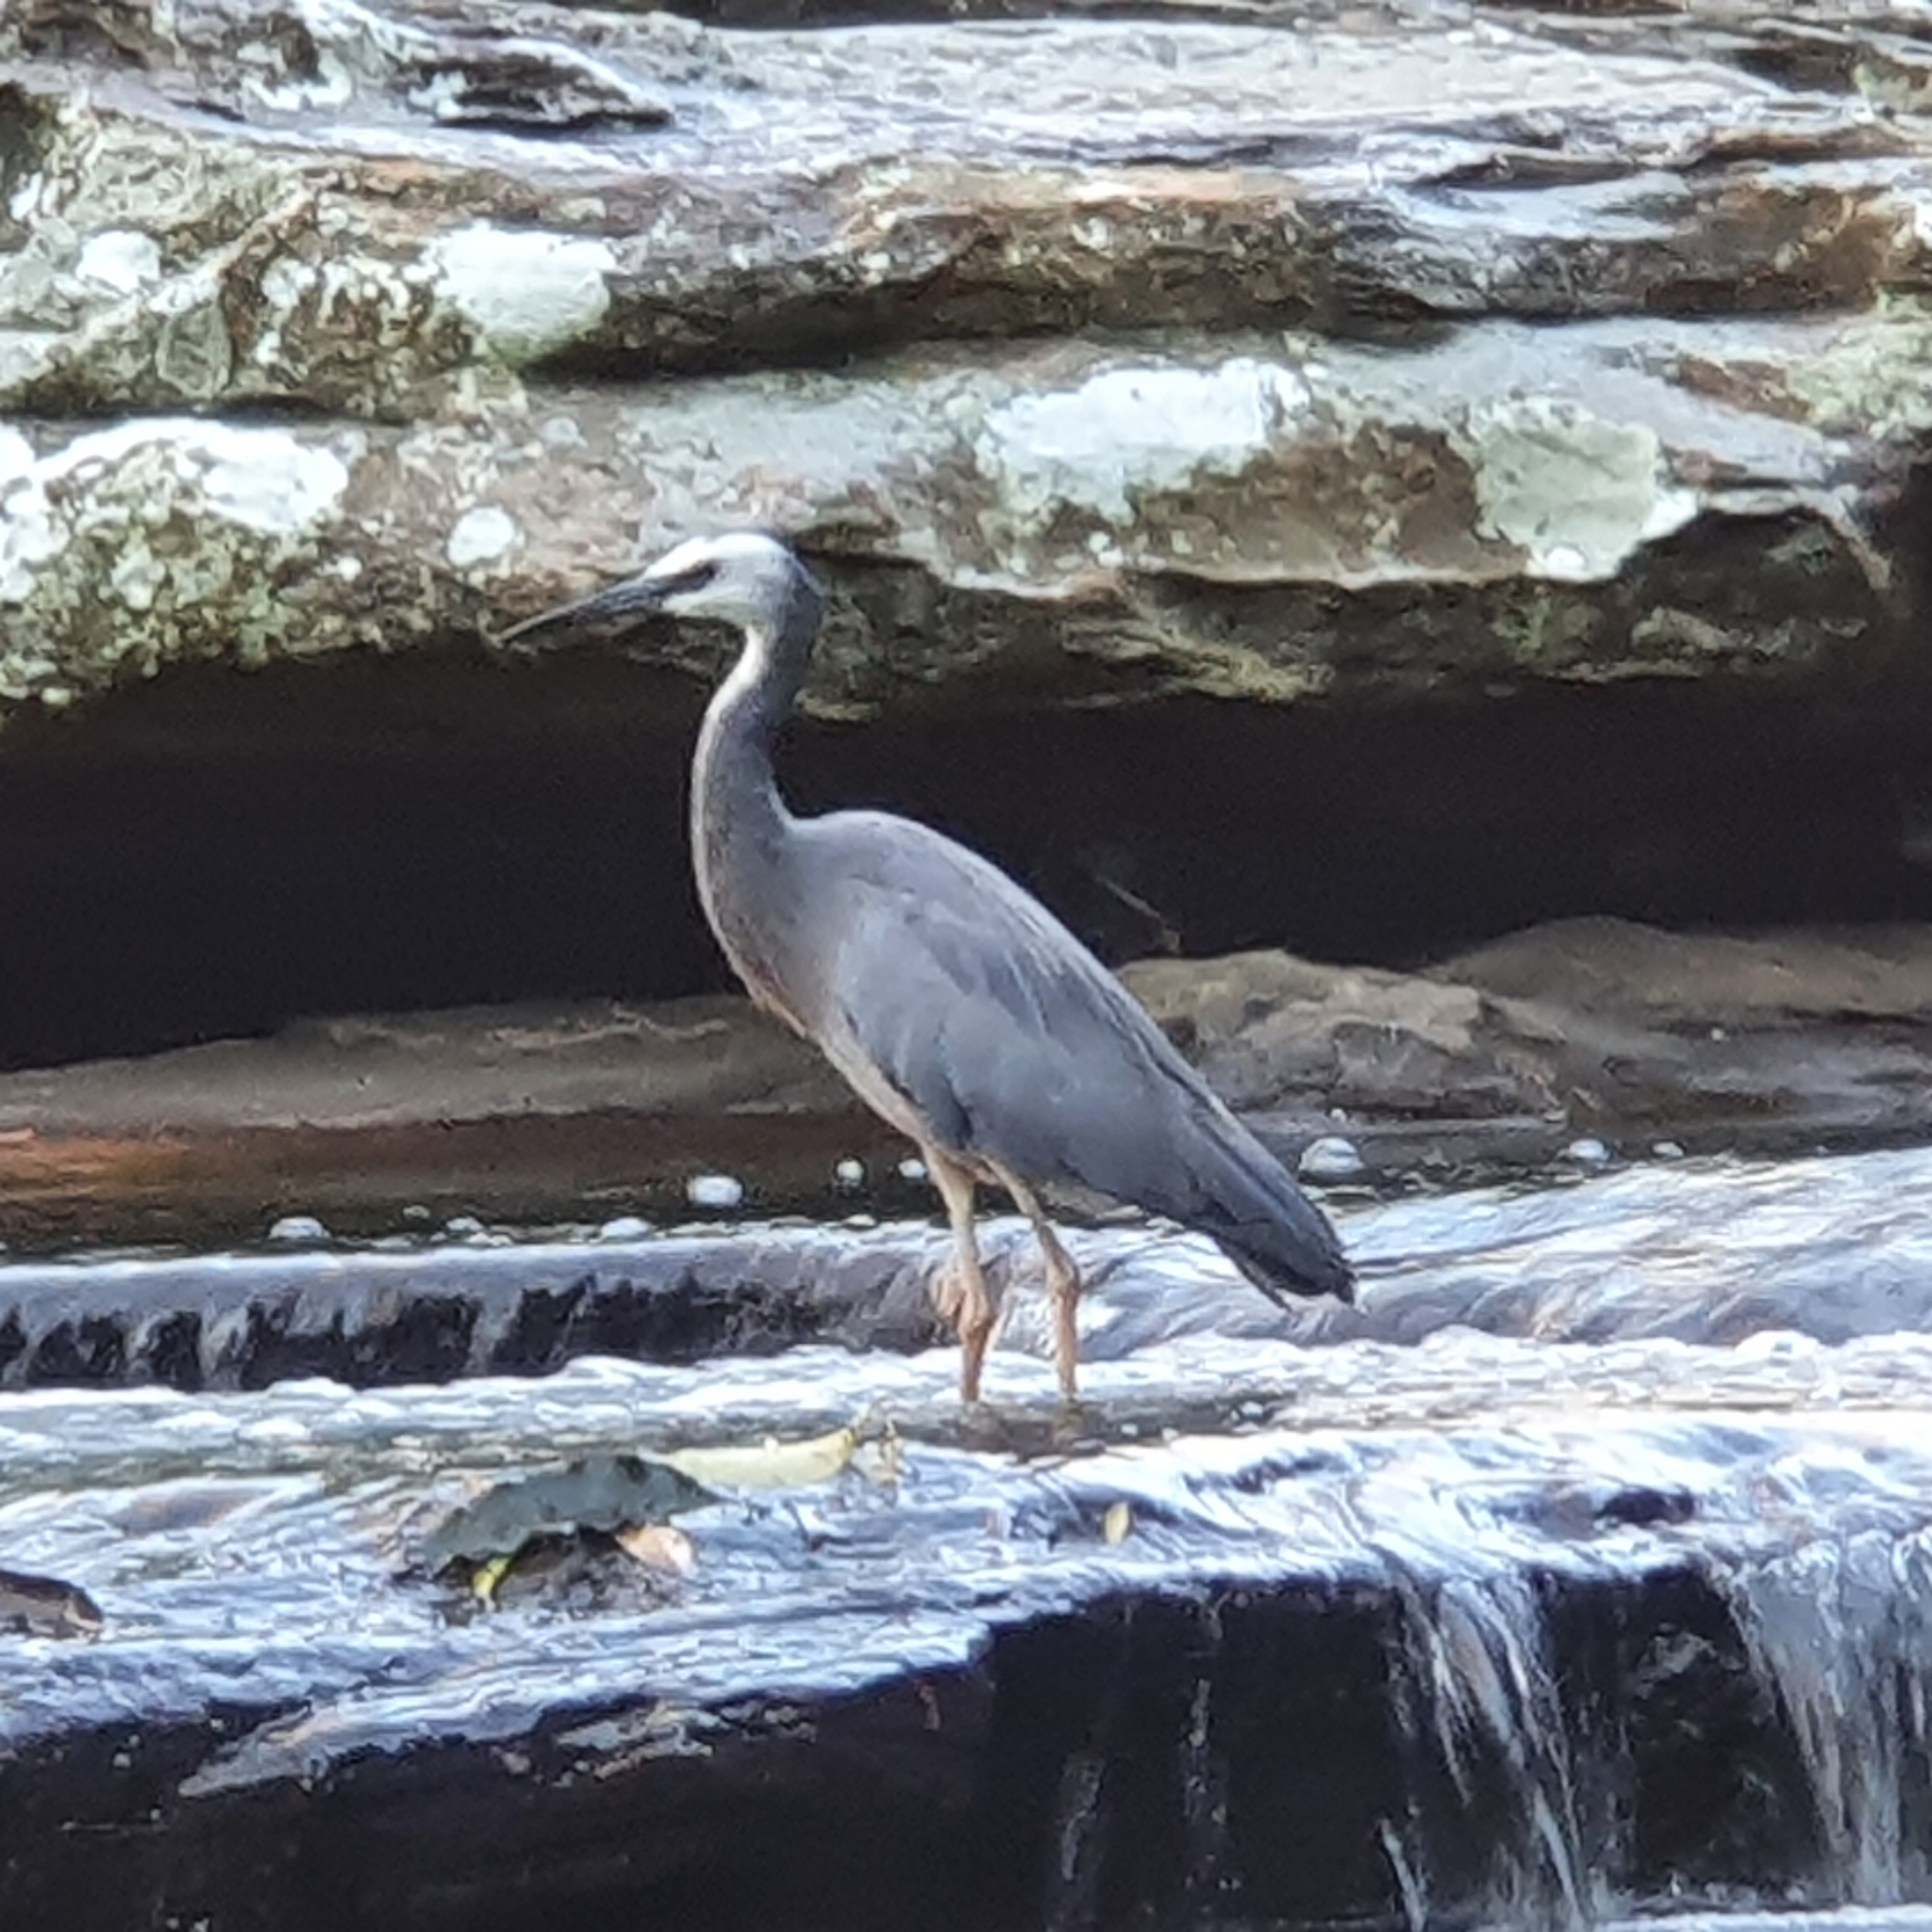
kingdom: Animalia
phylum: Chordata
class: Aves
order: Pelecaniformes
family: Ardeidae
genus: Egretta
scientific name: Egretta novaehollandiae
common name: White-faced heron
